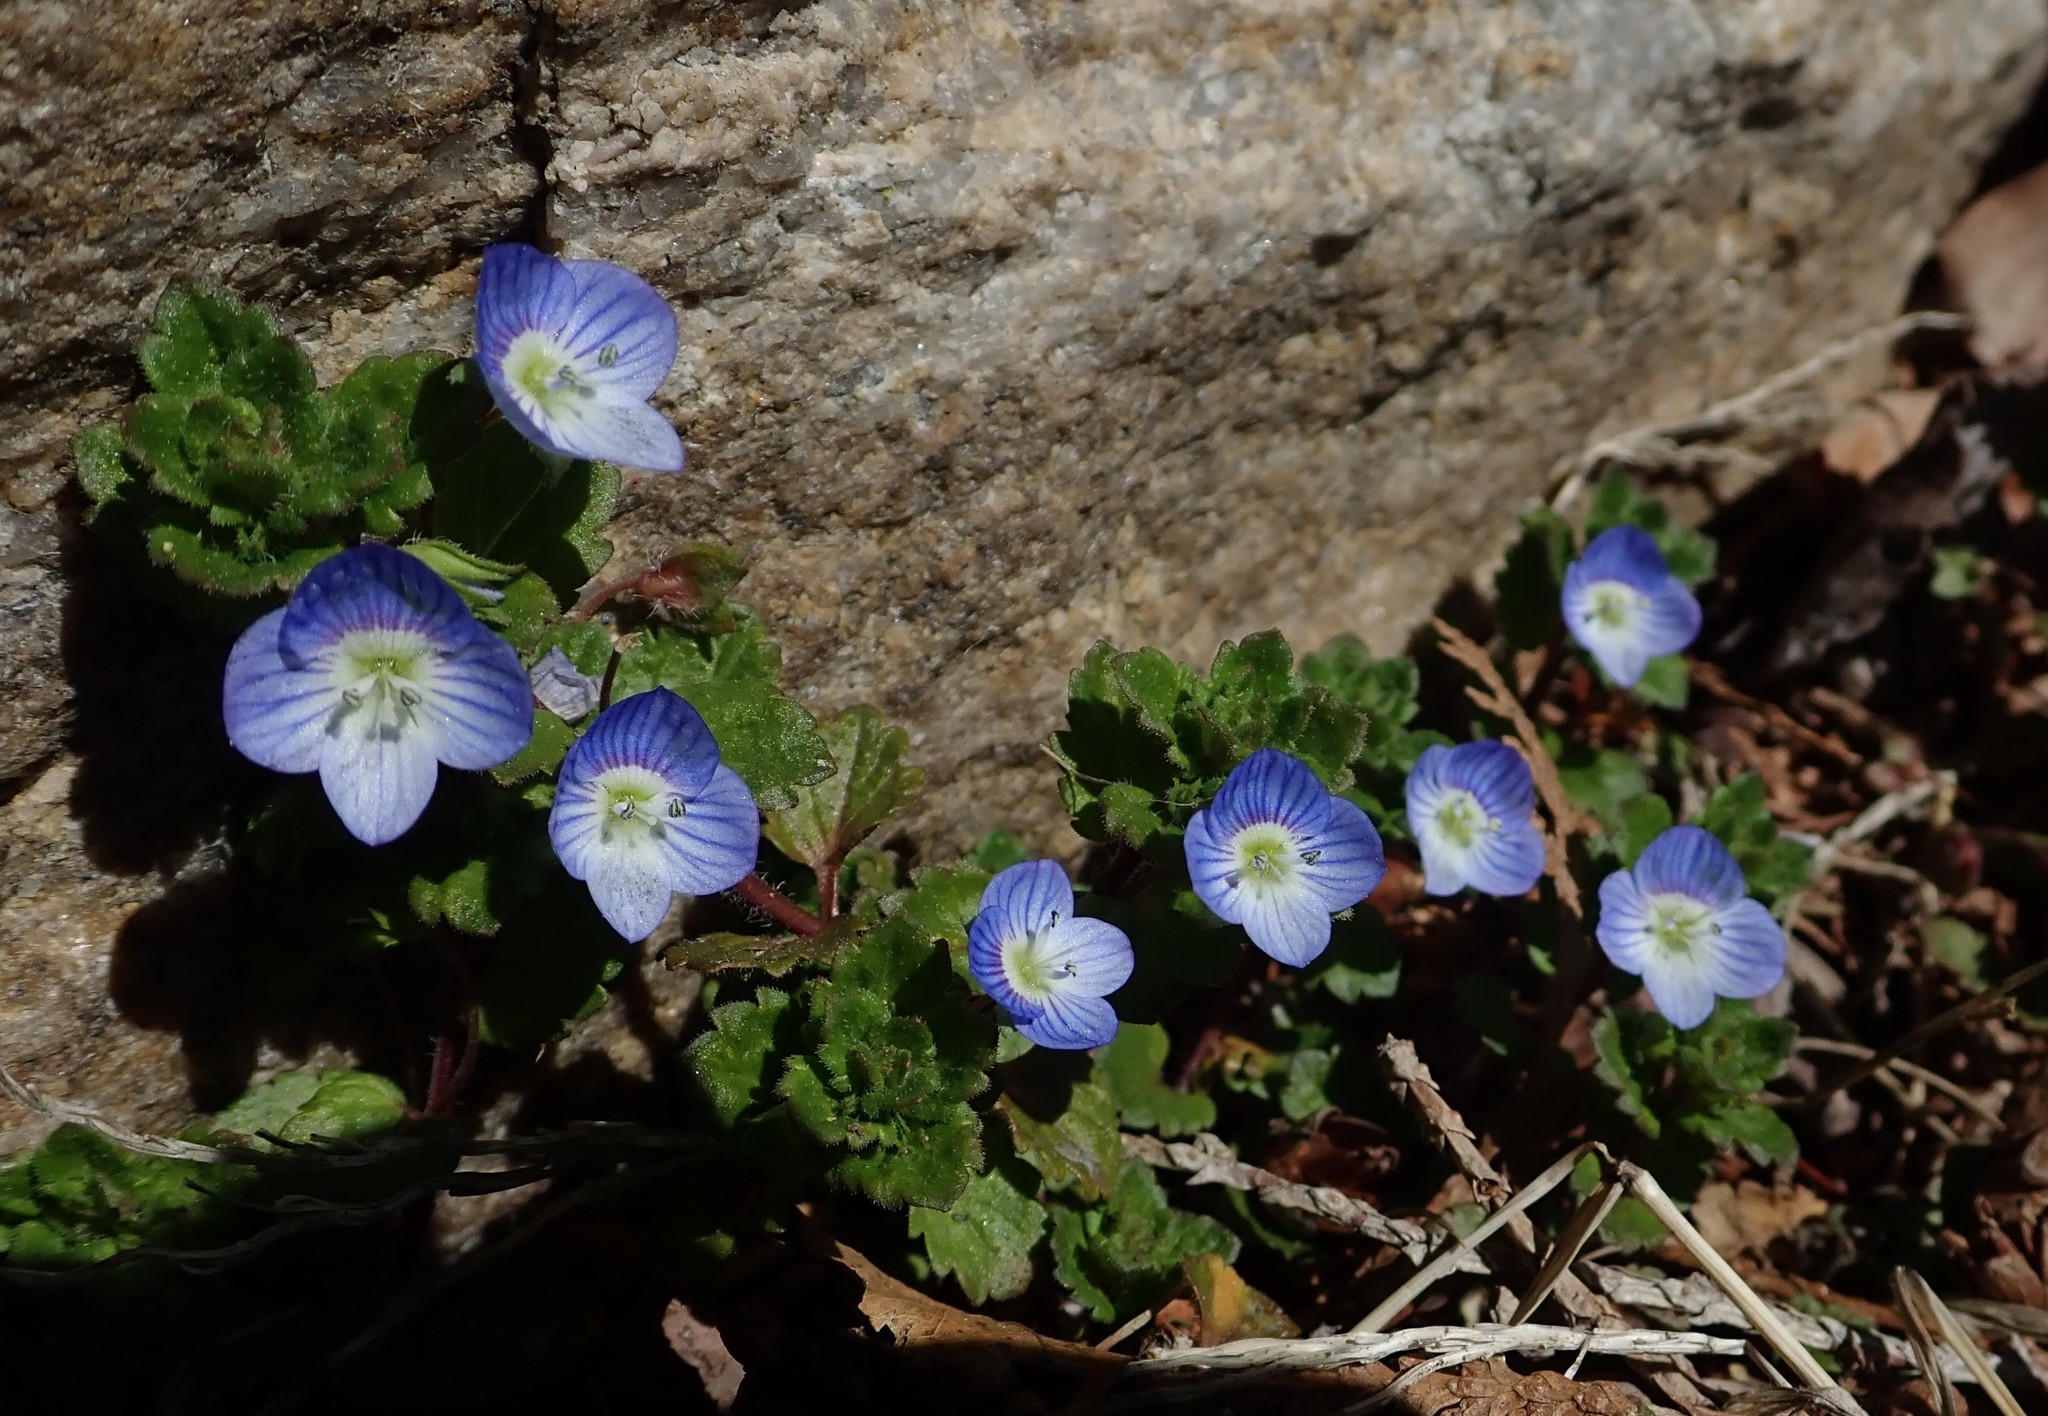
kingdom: Plantae
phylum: Tracheophyta
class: Magnoliopsida
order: Lamiales
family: Plantaginaceae
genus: Veronica
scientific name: Veronica persica
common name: Common field-speedwell
